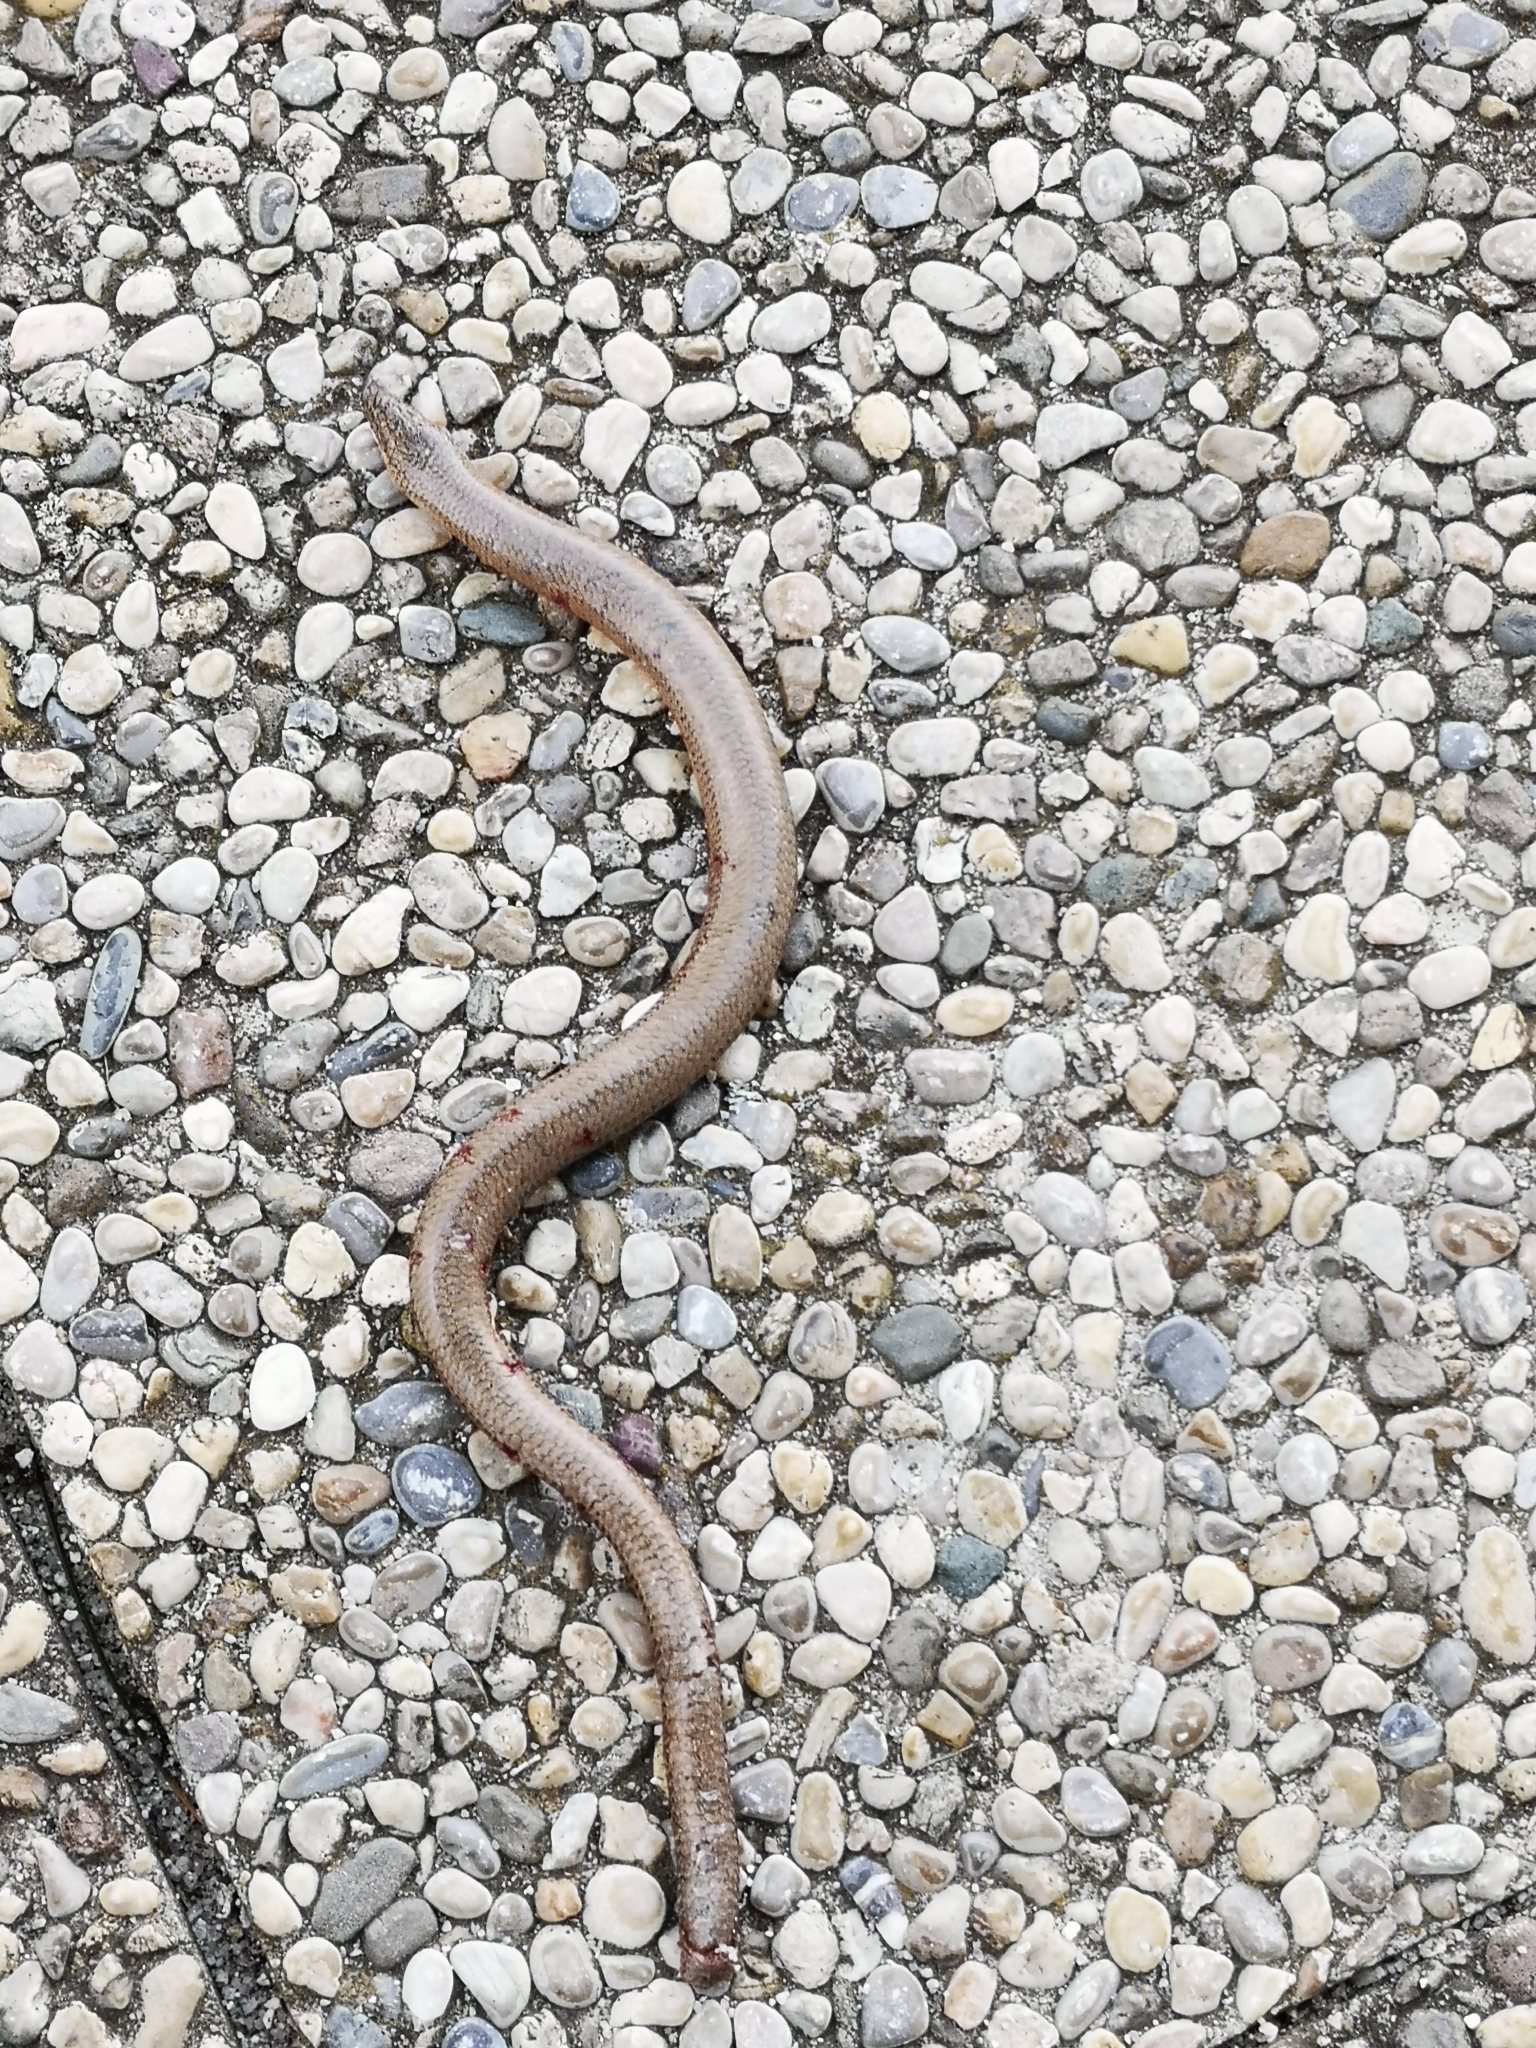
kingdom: Animalia
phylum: Chordata
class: Squamata
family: Anguidae
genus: Anguis
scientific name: Anguis fragilis
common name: Slow worm
